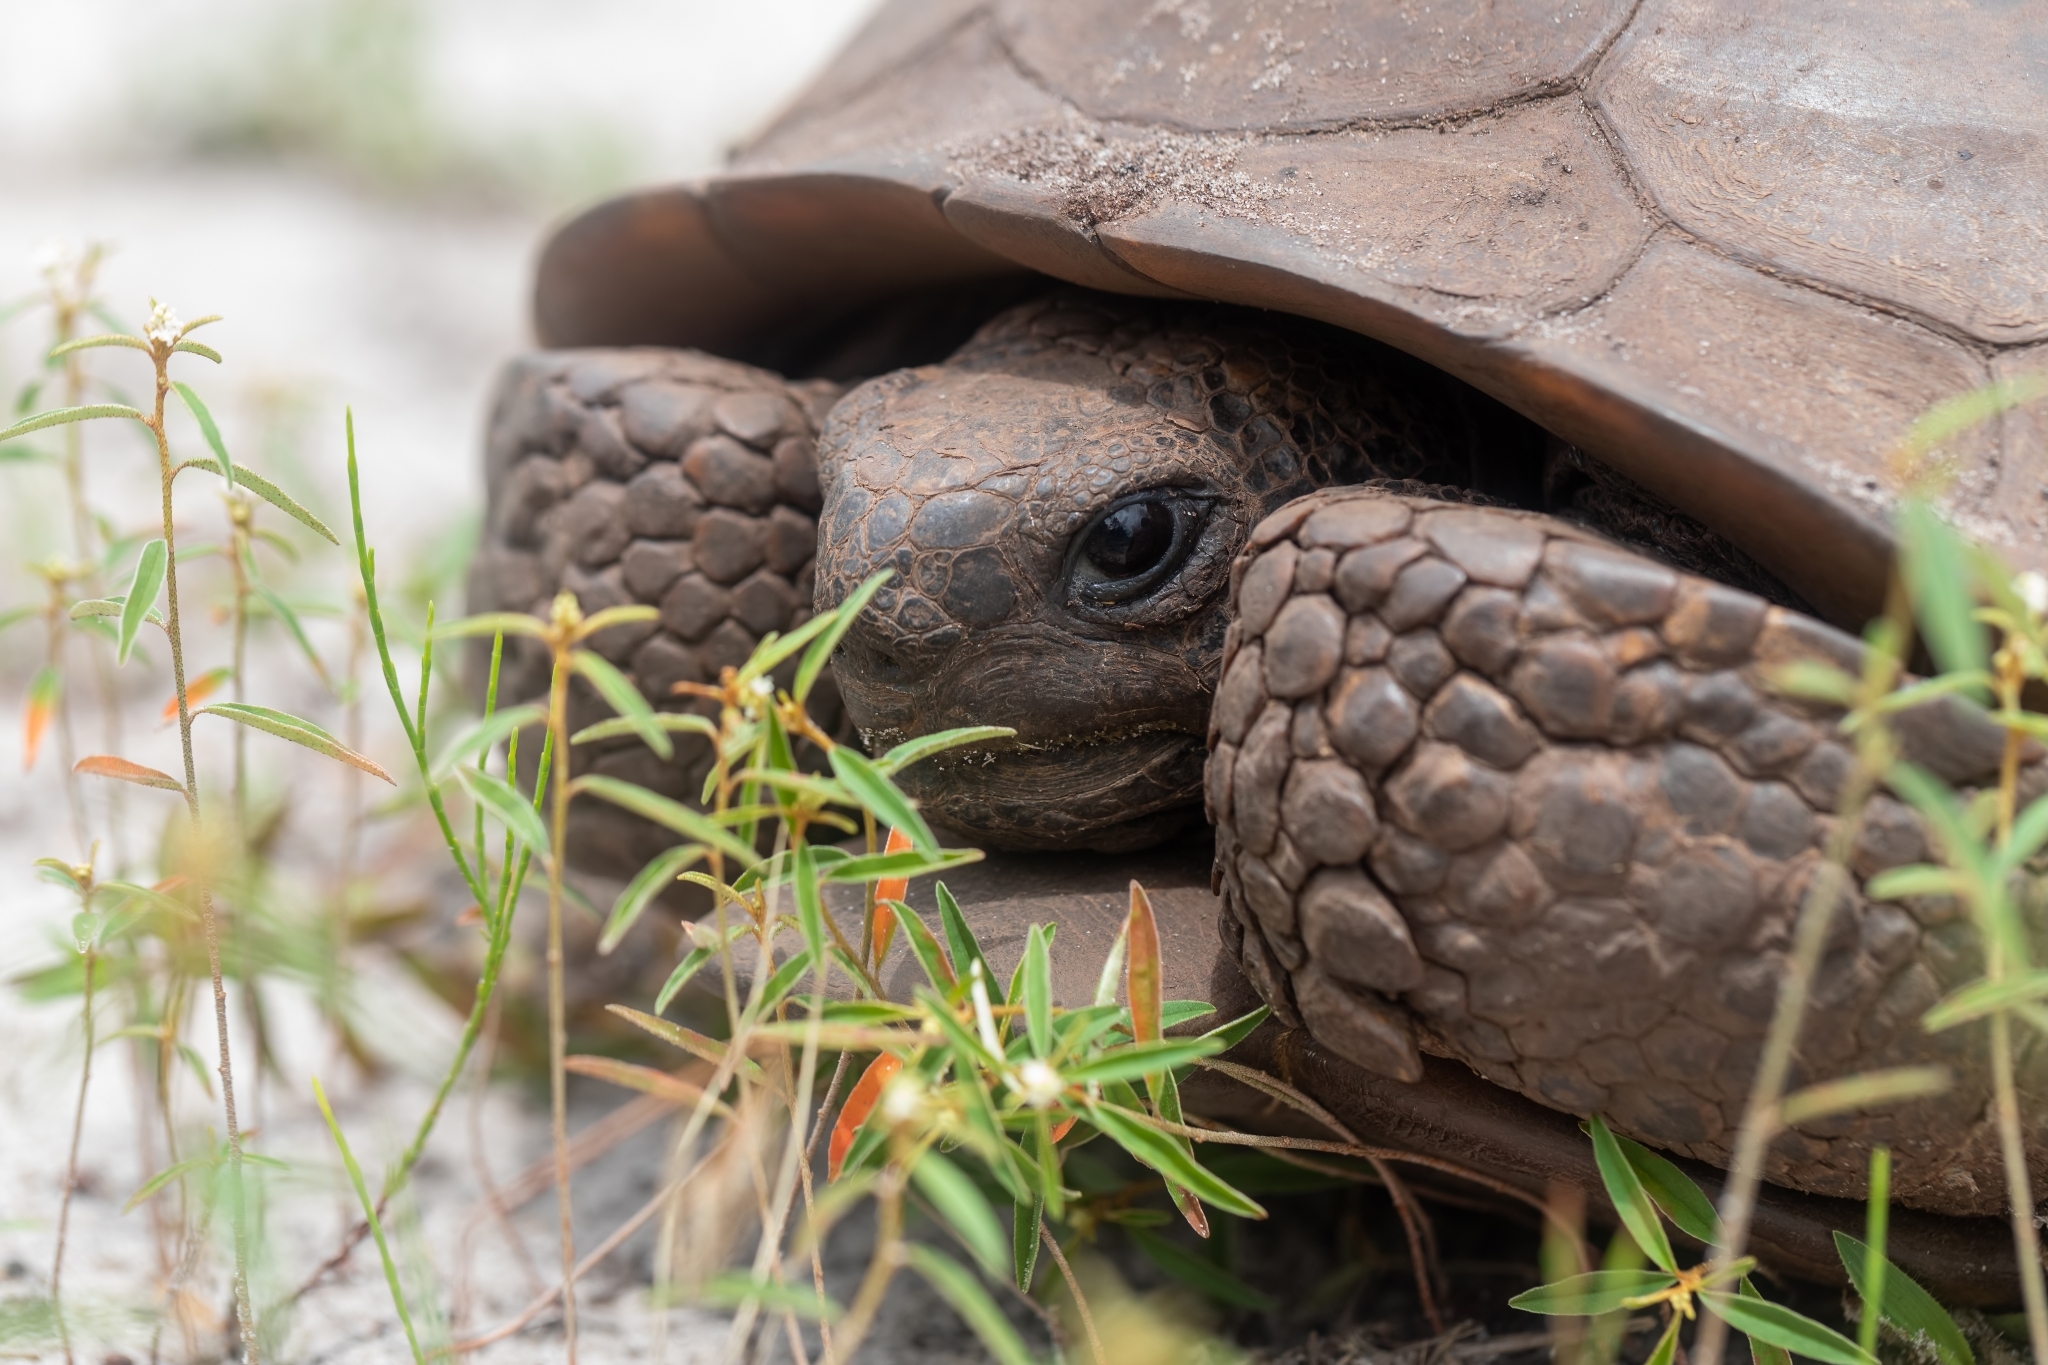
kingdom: Animalia
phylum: Chordata
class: Testudines
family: Testudinidae
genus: Gopherus
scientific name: Gopherus polyphemus
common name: Florida gopher tortoise
